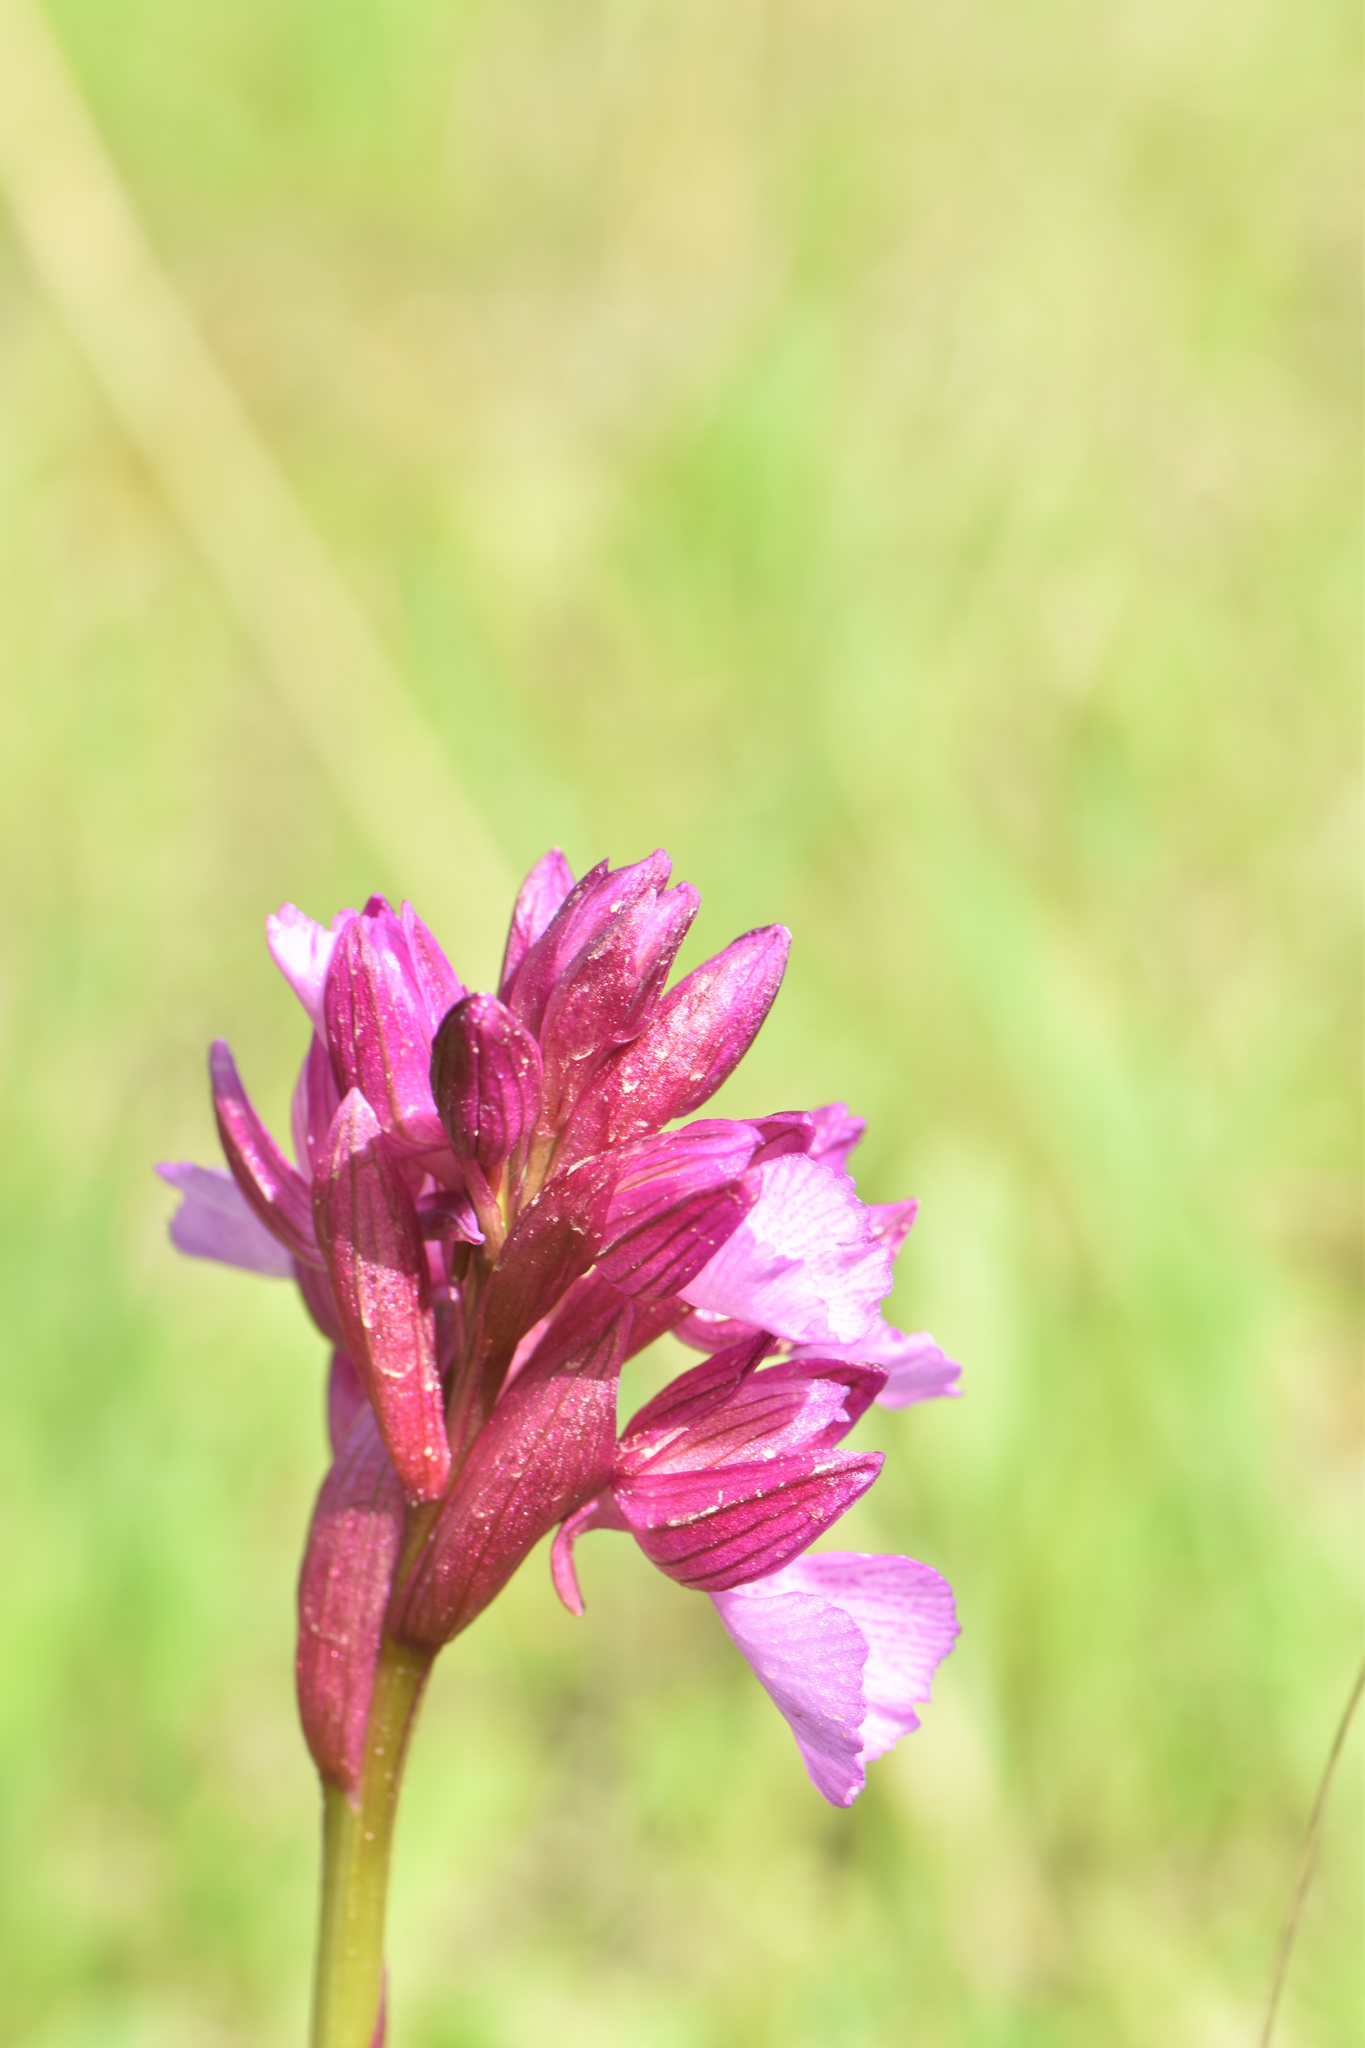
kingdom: Plantae
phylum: Tracheophyta
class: Liliopsida
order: Asparagales
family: Orchidaceae
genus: Anacamptis
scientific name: Anacamptis papilionacea
